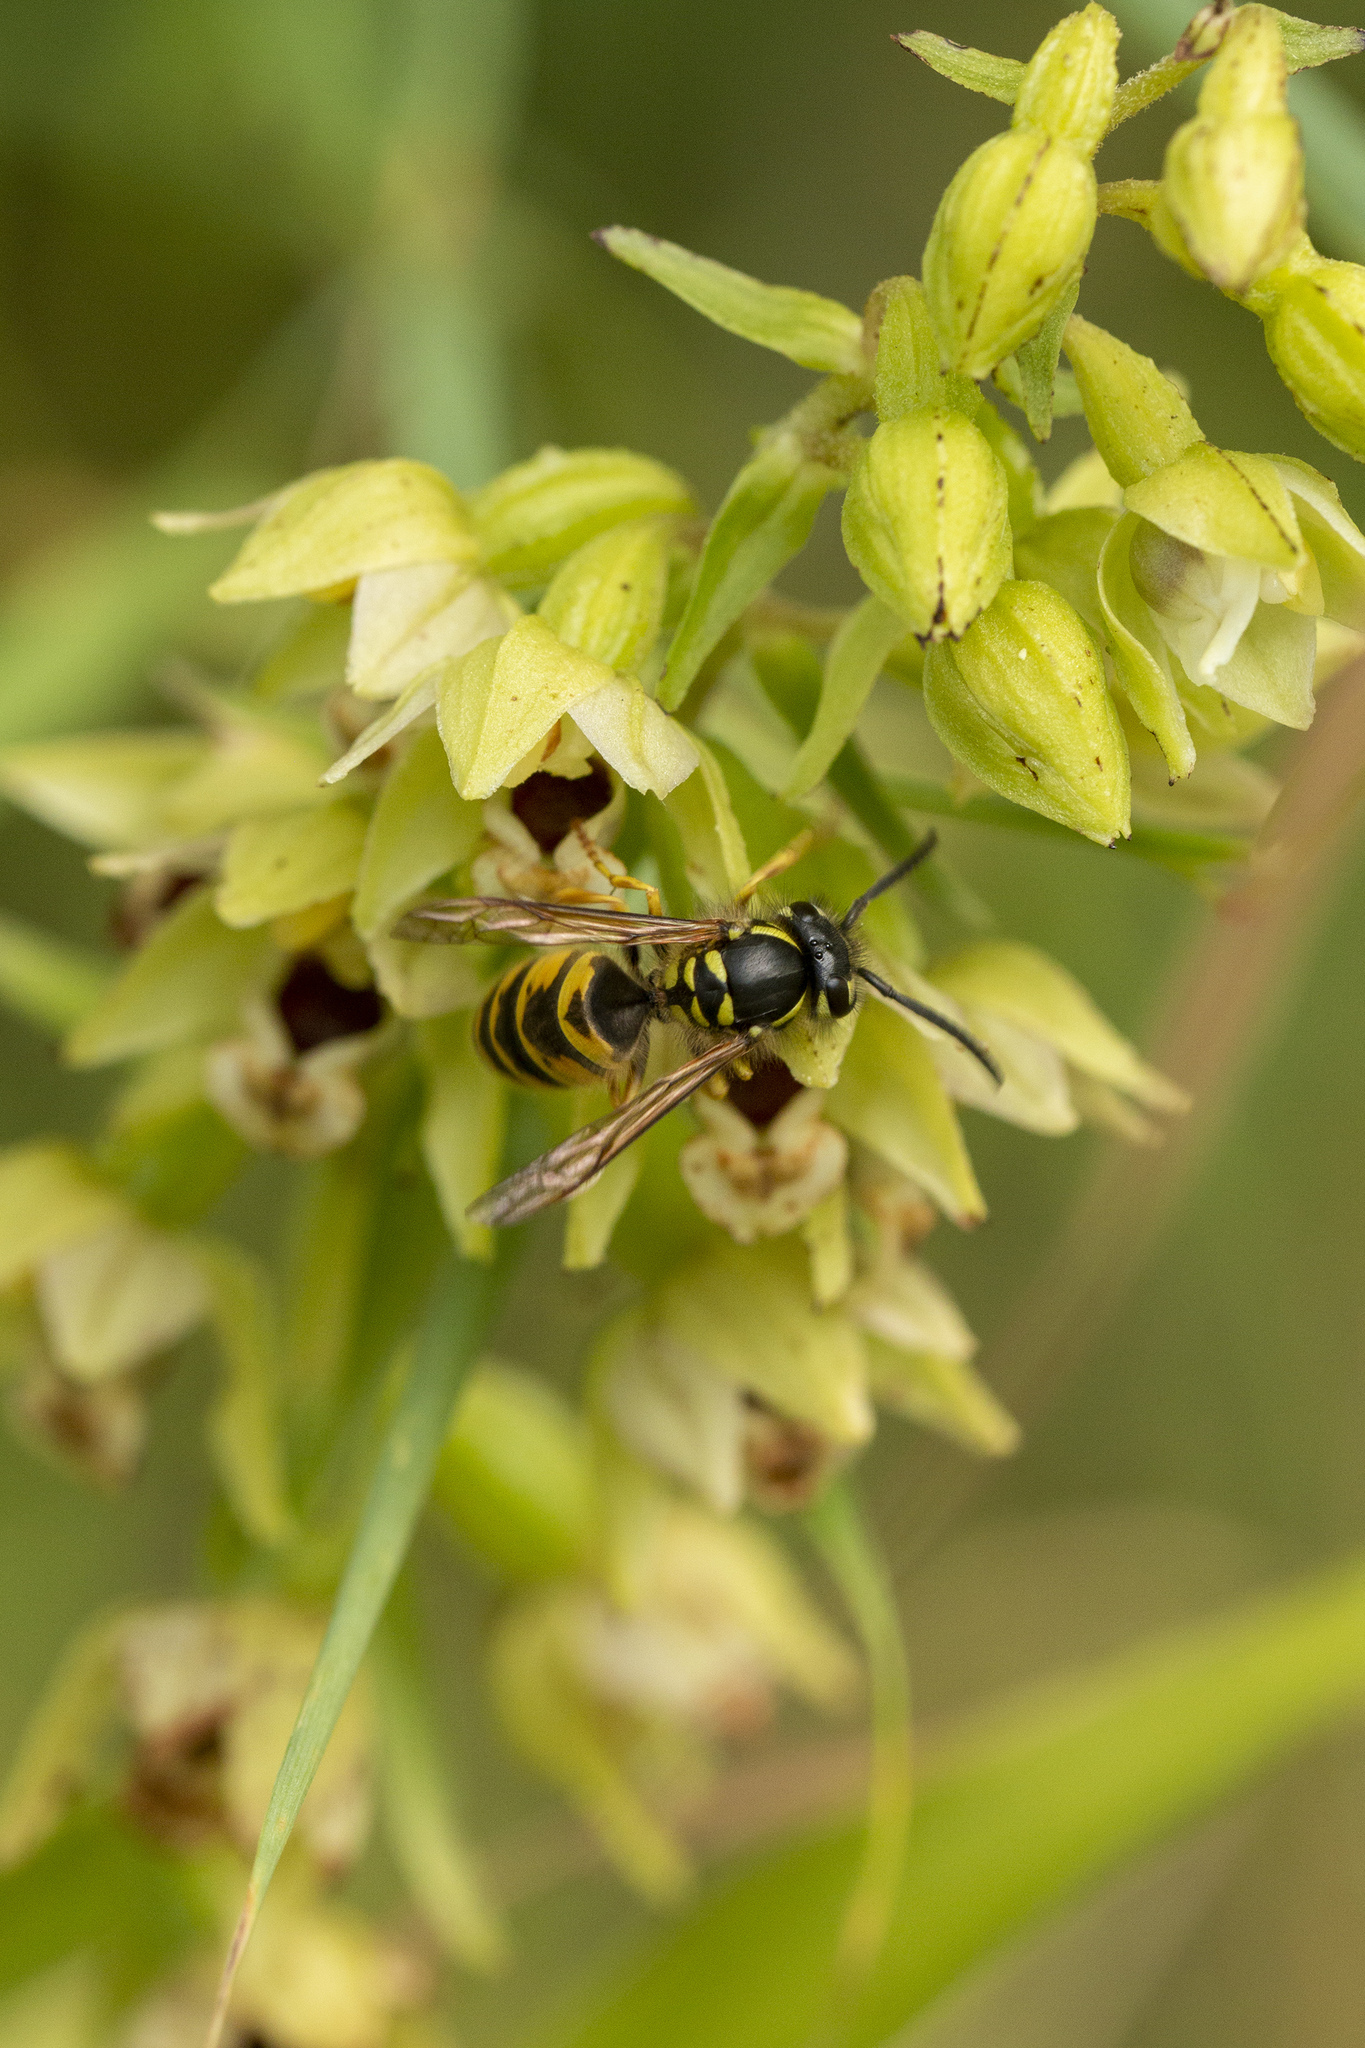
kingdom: Animalia
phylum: Arthropoda
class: Insecta
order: Hymenoptera
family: Vespidae
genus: Vespula
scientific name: Vespula vulgaris
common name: Common wasp
